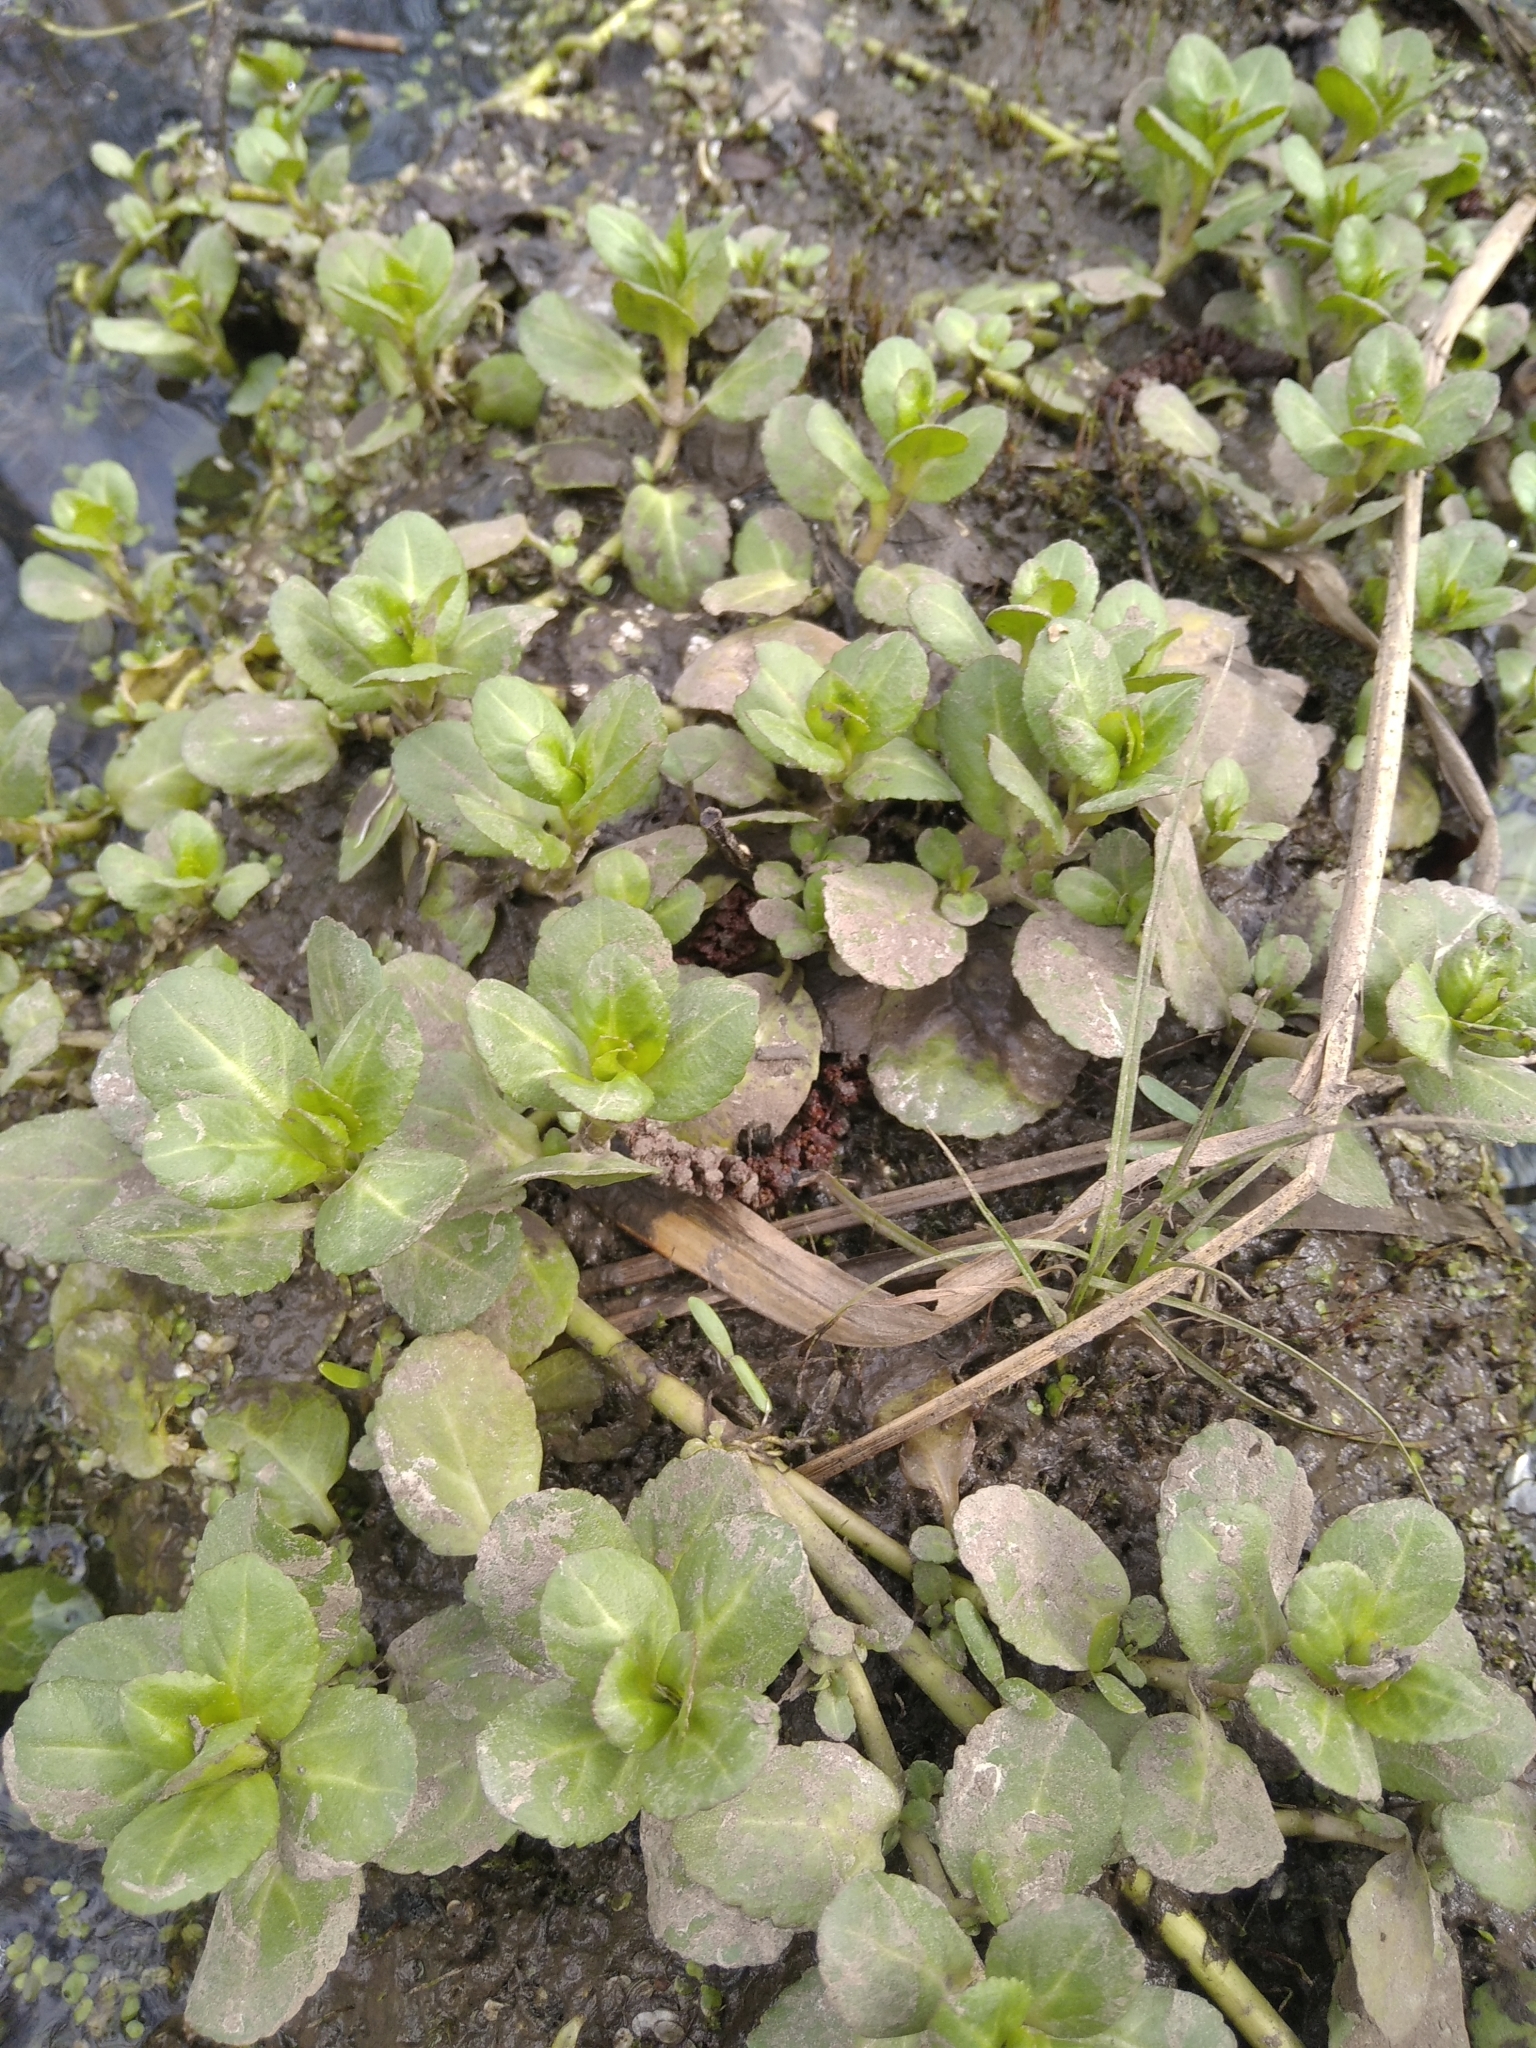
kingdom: Plantae
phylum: Tracheophyta
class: Magnoliopsida
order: Lamiales
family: Plantaginaceae
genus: Veronica
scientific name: Veronica beccabunga
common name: Brooklime
